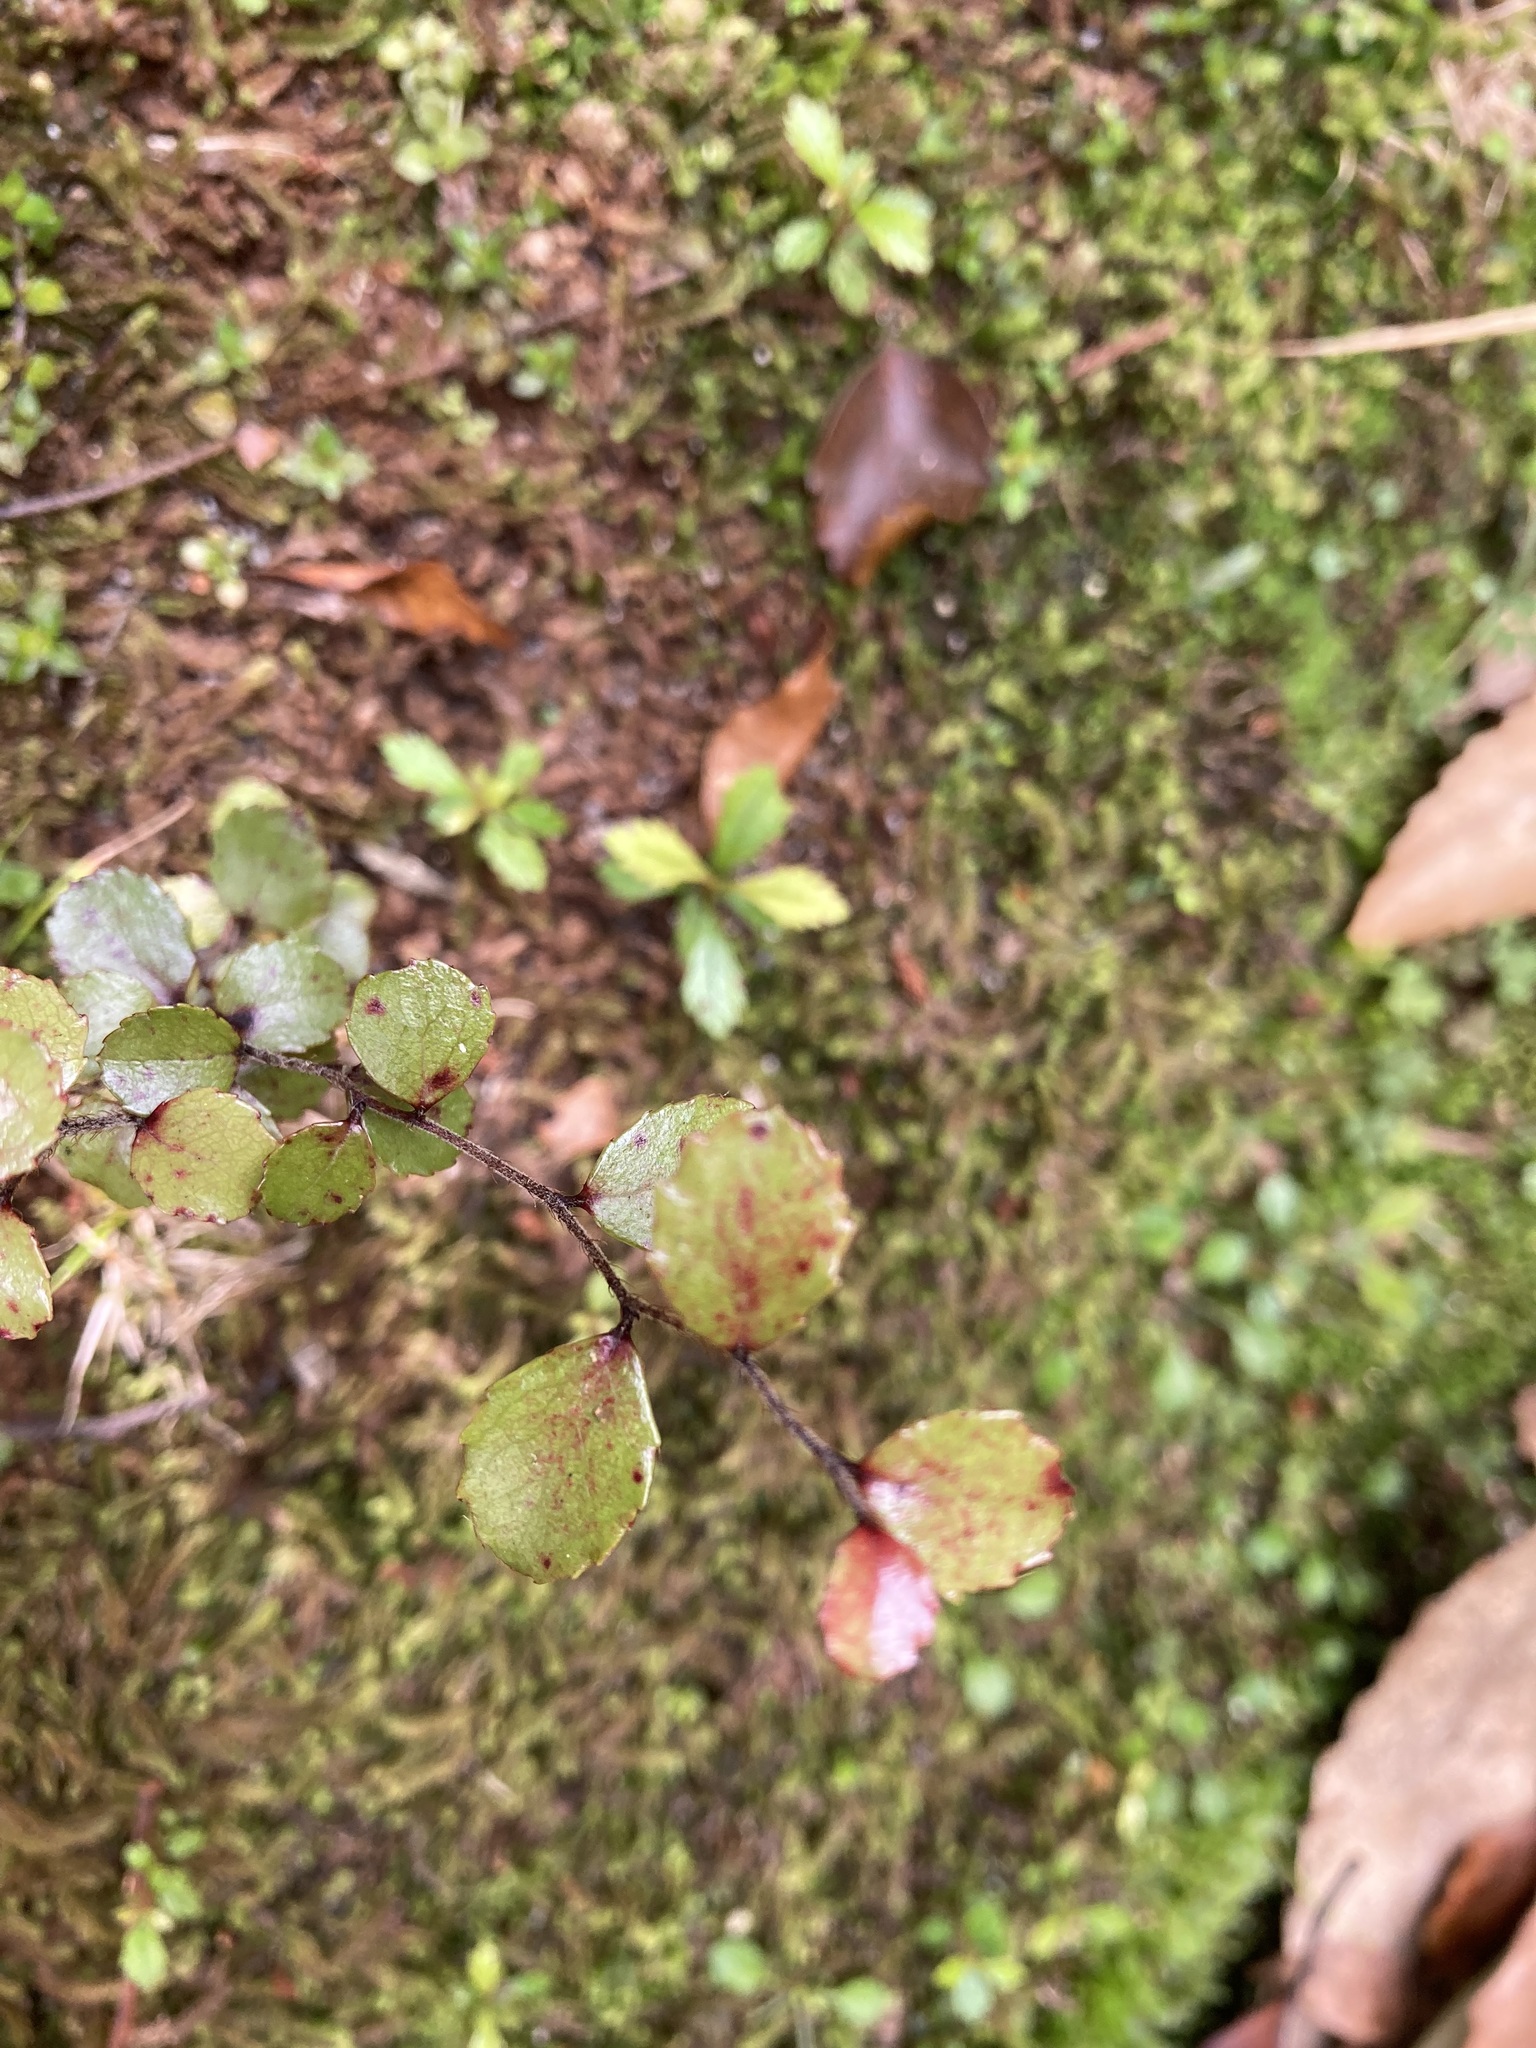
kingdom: Plantae
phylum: Tracheophyta
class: Magnoliopsida
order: Ericales
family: Ericaceae
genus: Gaultheria
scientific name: Gaultheria antipoda
